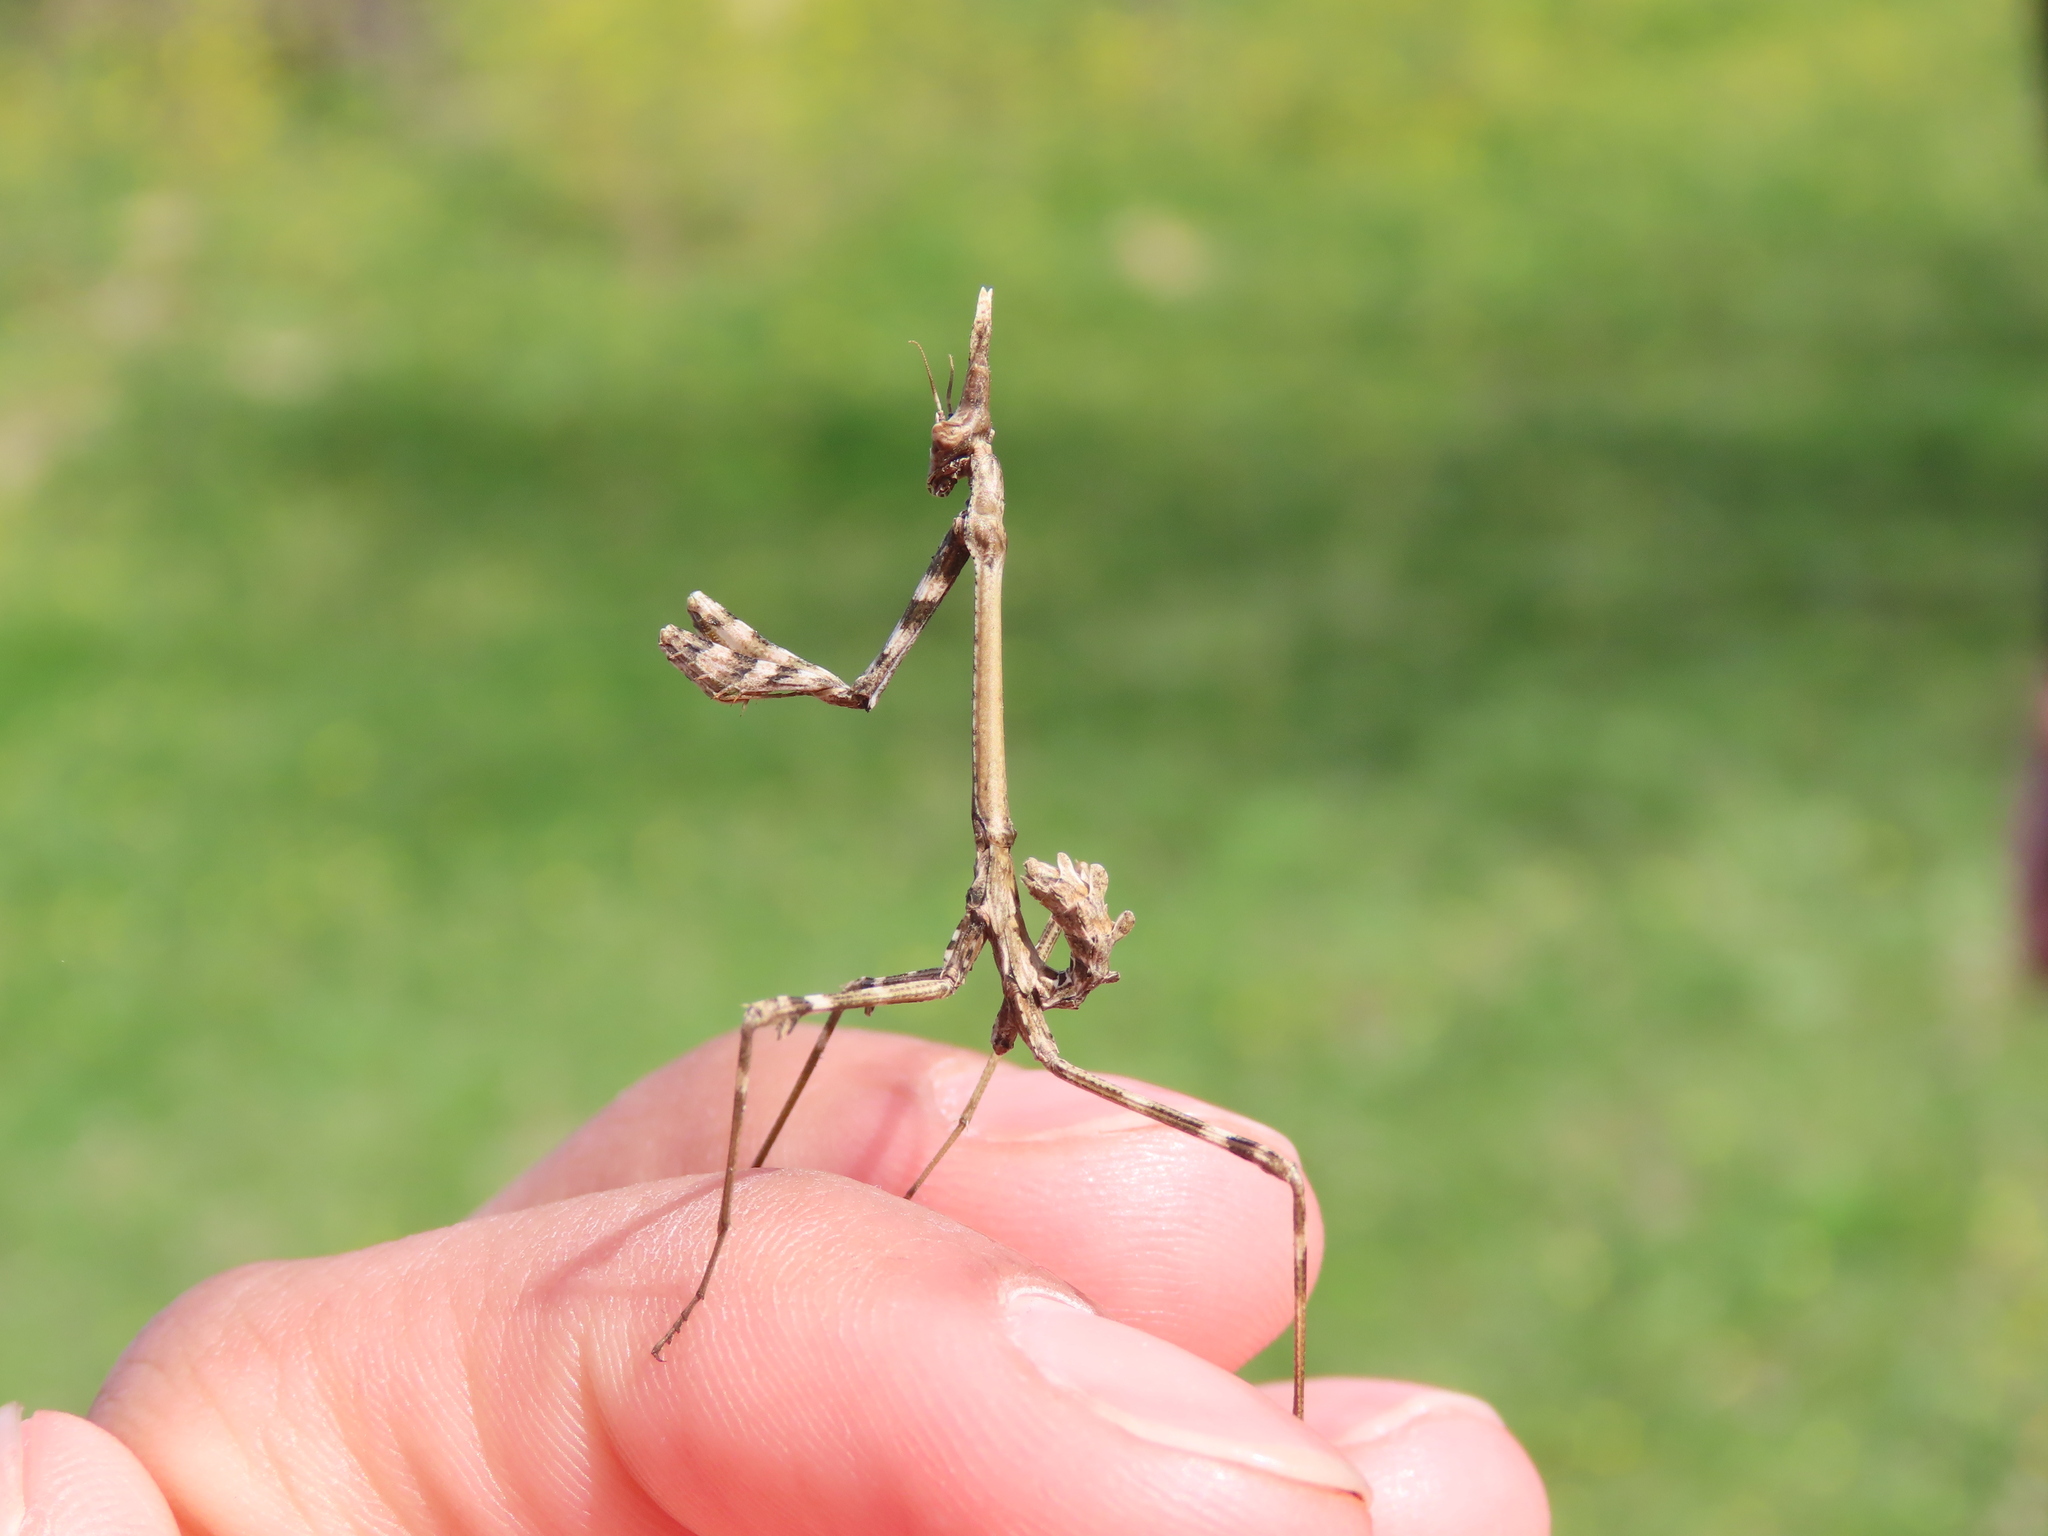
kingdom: Animalia
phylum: Arthropoda
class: Insecta
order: Mantodea
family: Empusidae
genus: Empusa
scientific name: Empusa pennata
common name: Conehead mantis
